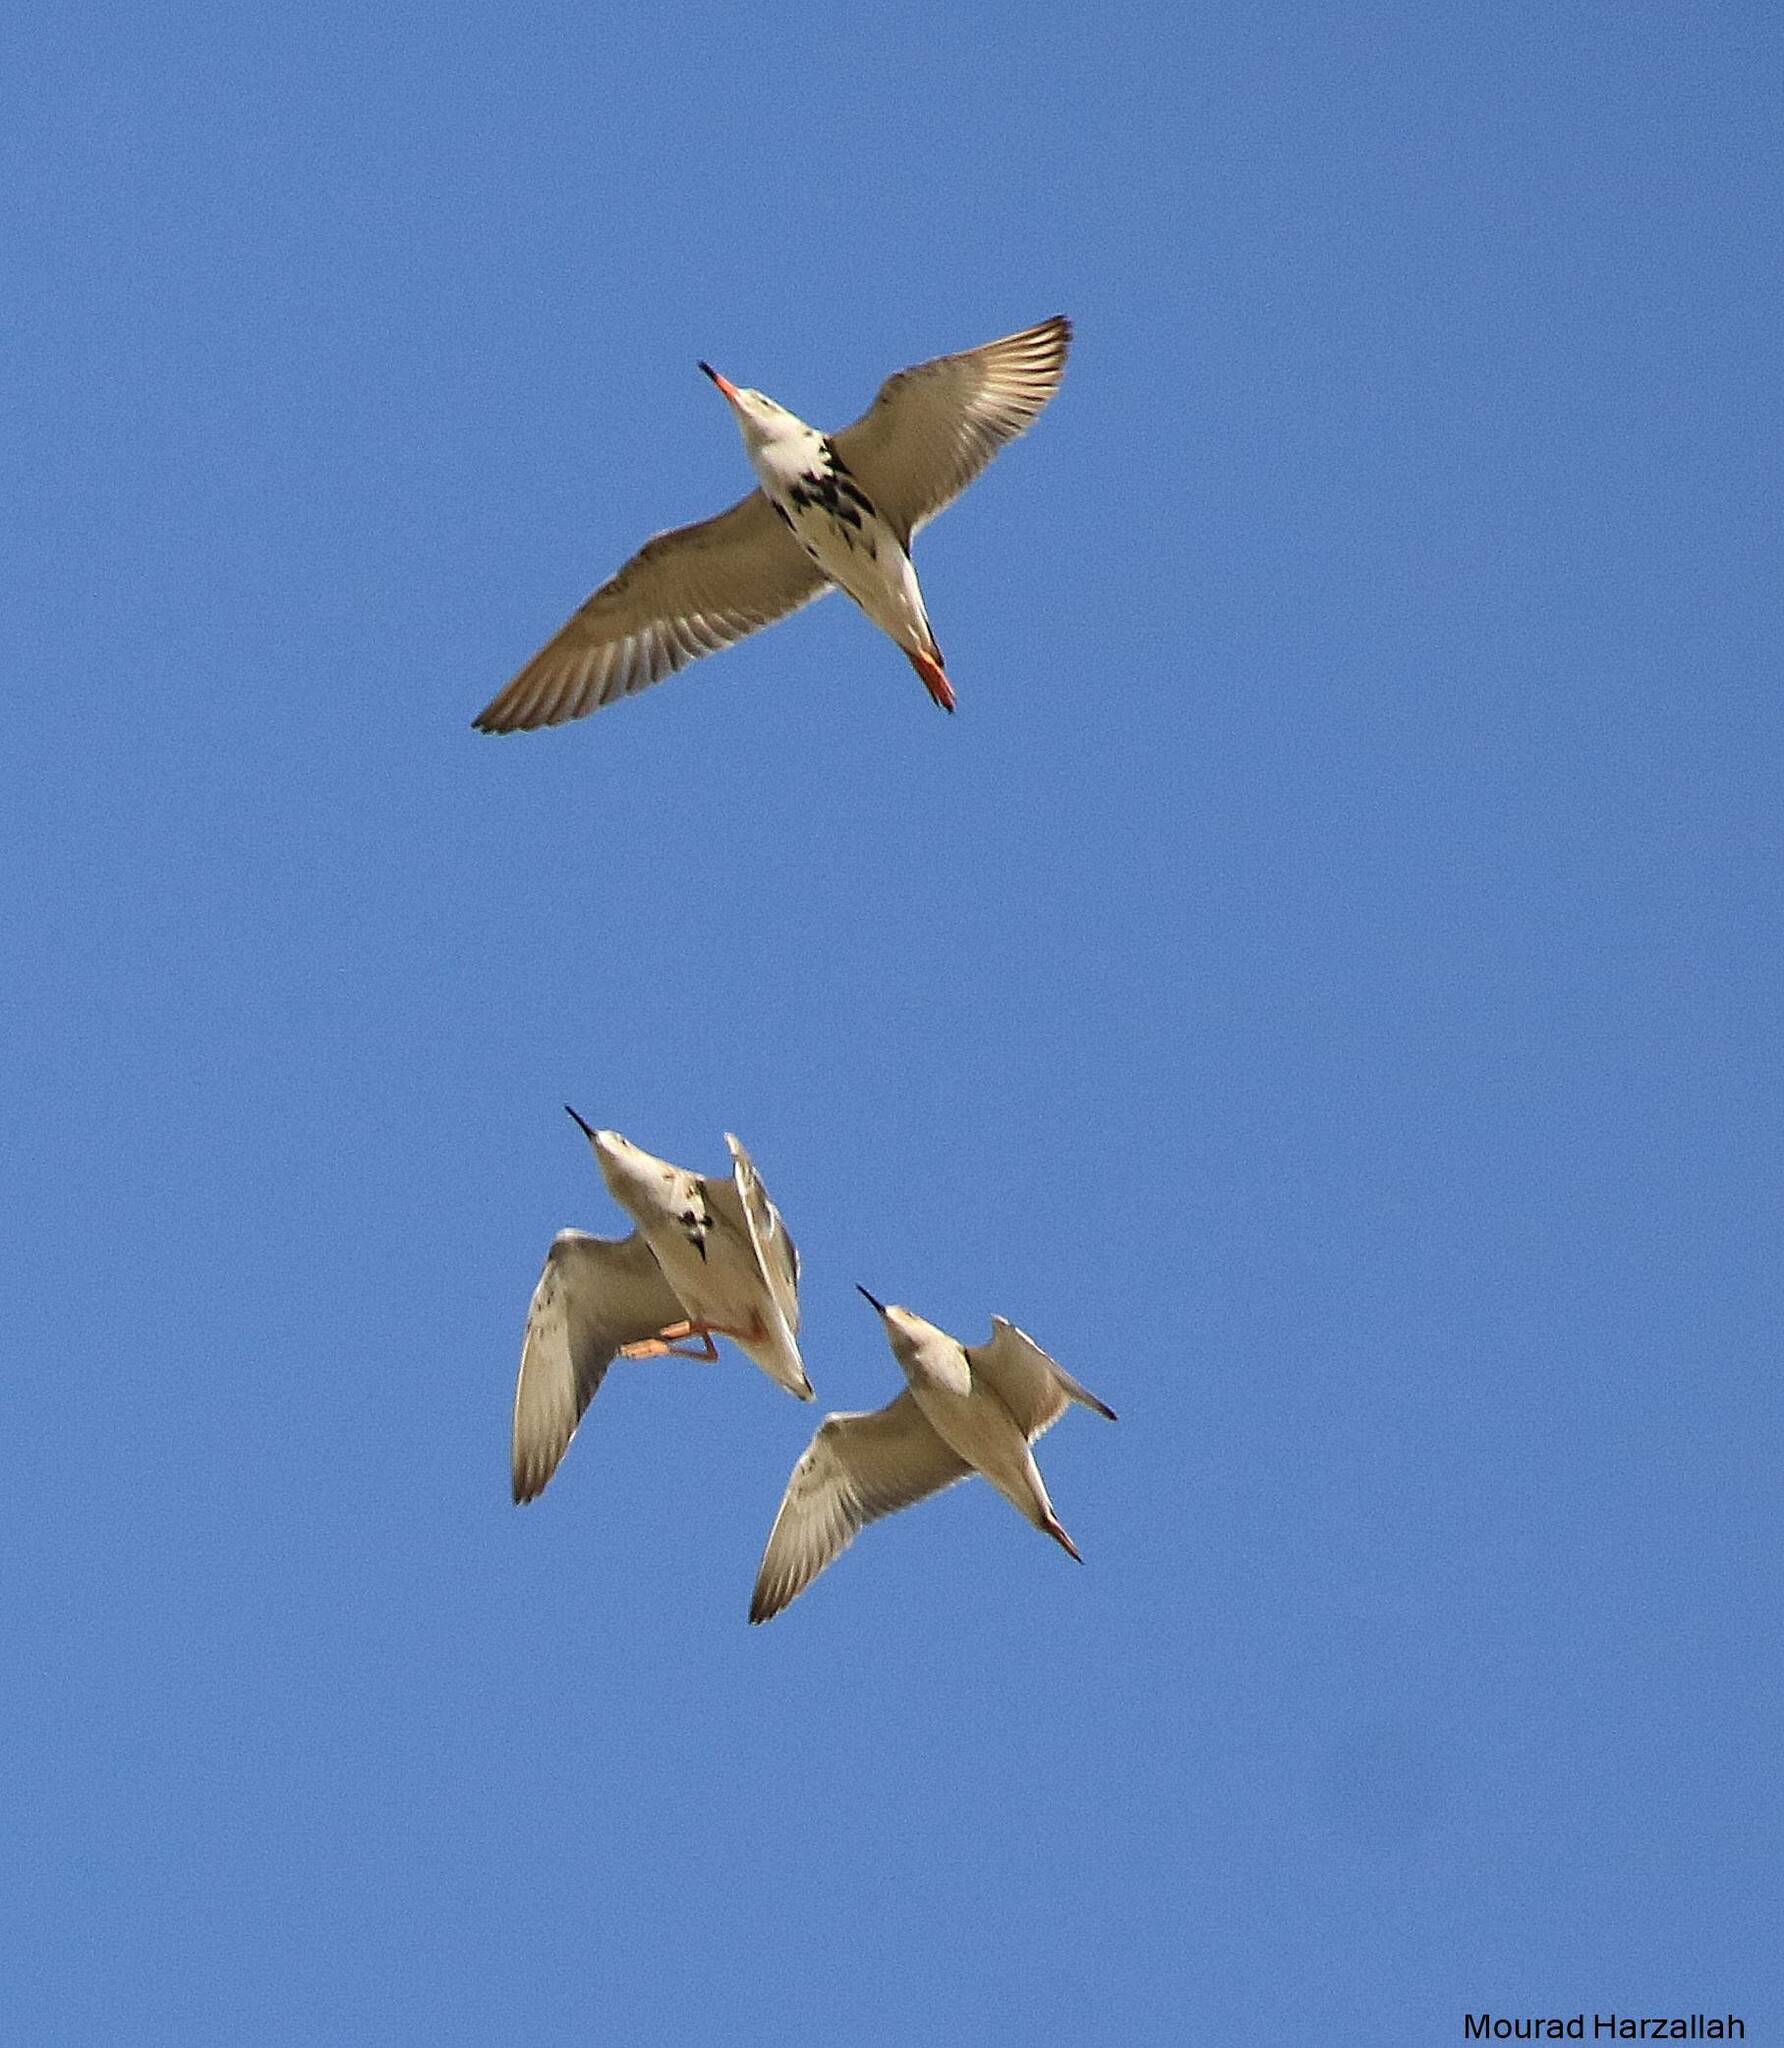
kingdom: Animalia
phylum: Chordata
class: Aves
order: Charadriiformes
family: Scolopacidae
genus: Calidris
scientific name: Calidris pugnax
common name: Ruff
